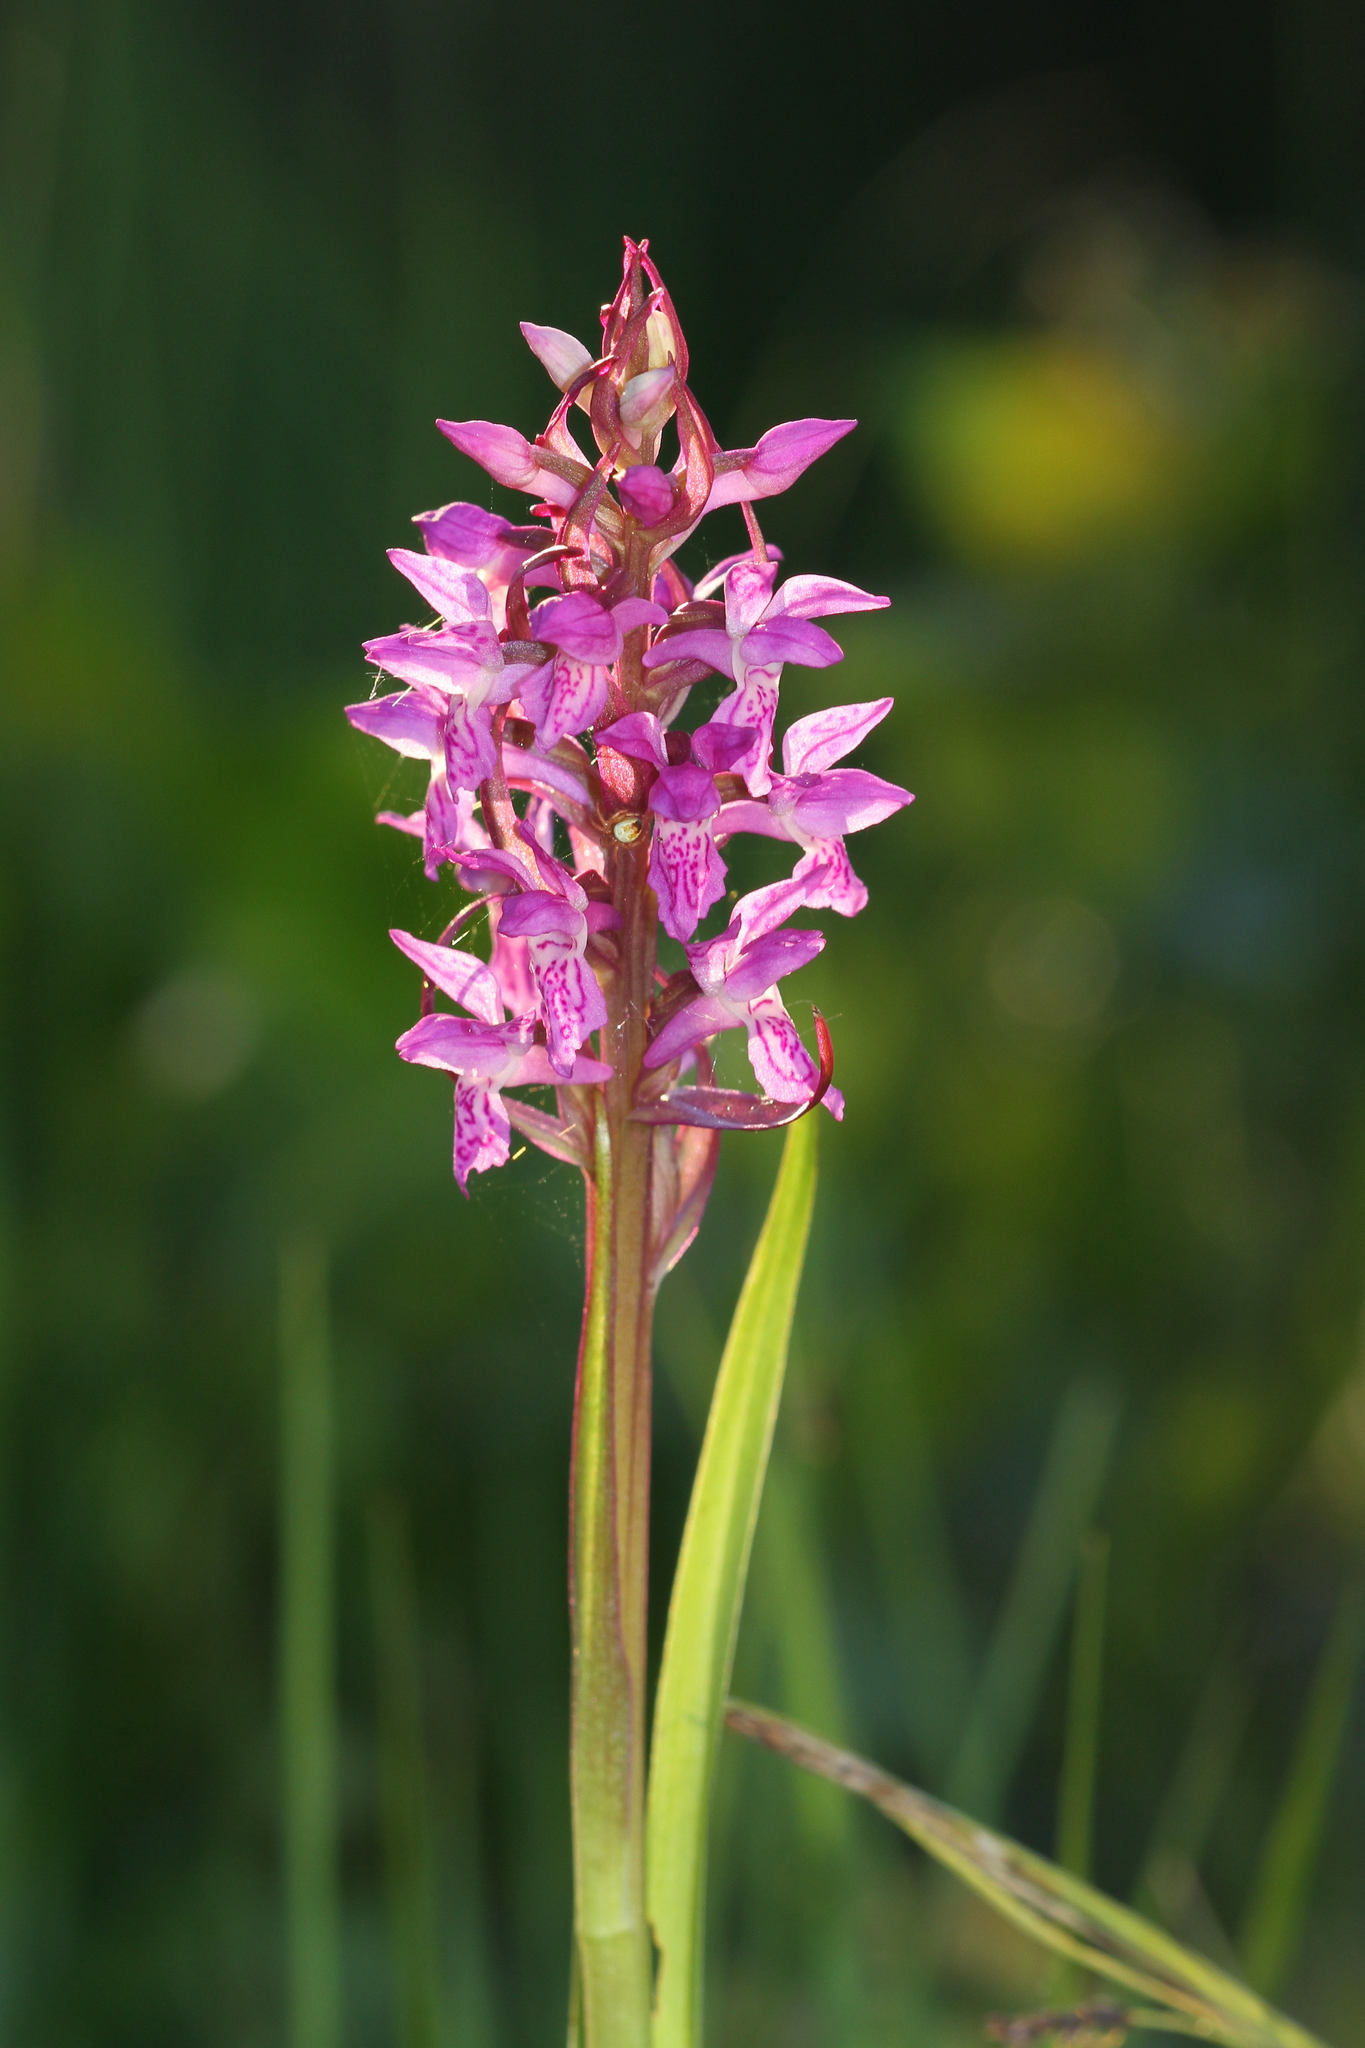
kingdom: Plantae
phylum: Tracheophyta
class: Liliopsida
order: Asparagales
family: Orchidaceae
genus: Dactylorhiza
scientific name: Dactylorhiza incarnata
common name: Early marsh-orchid
